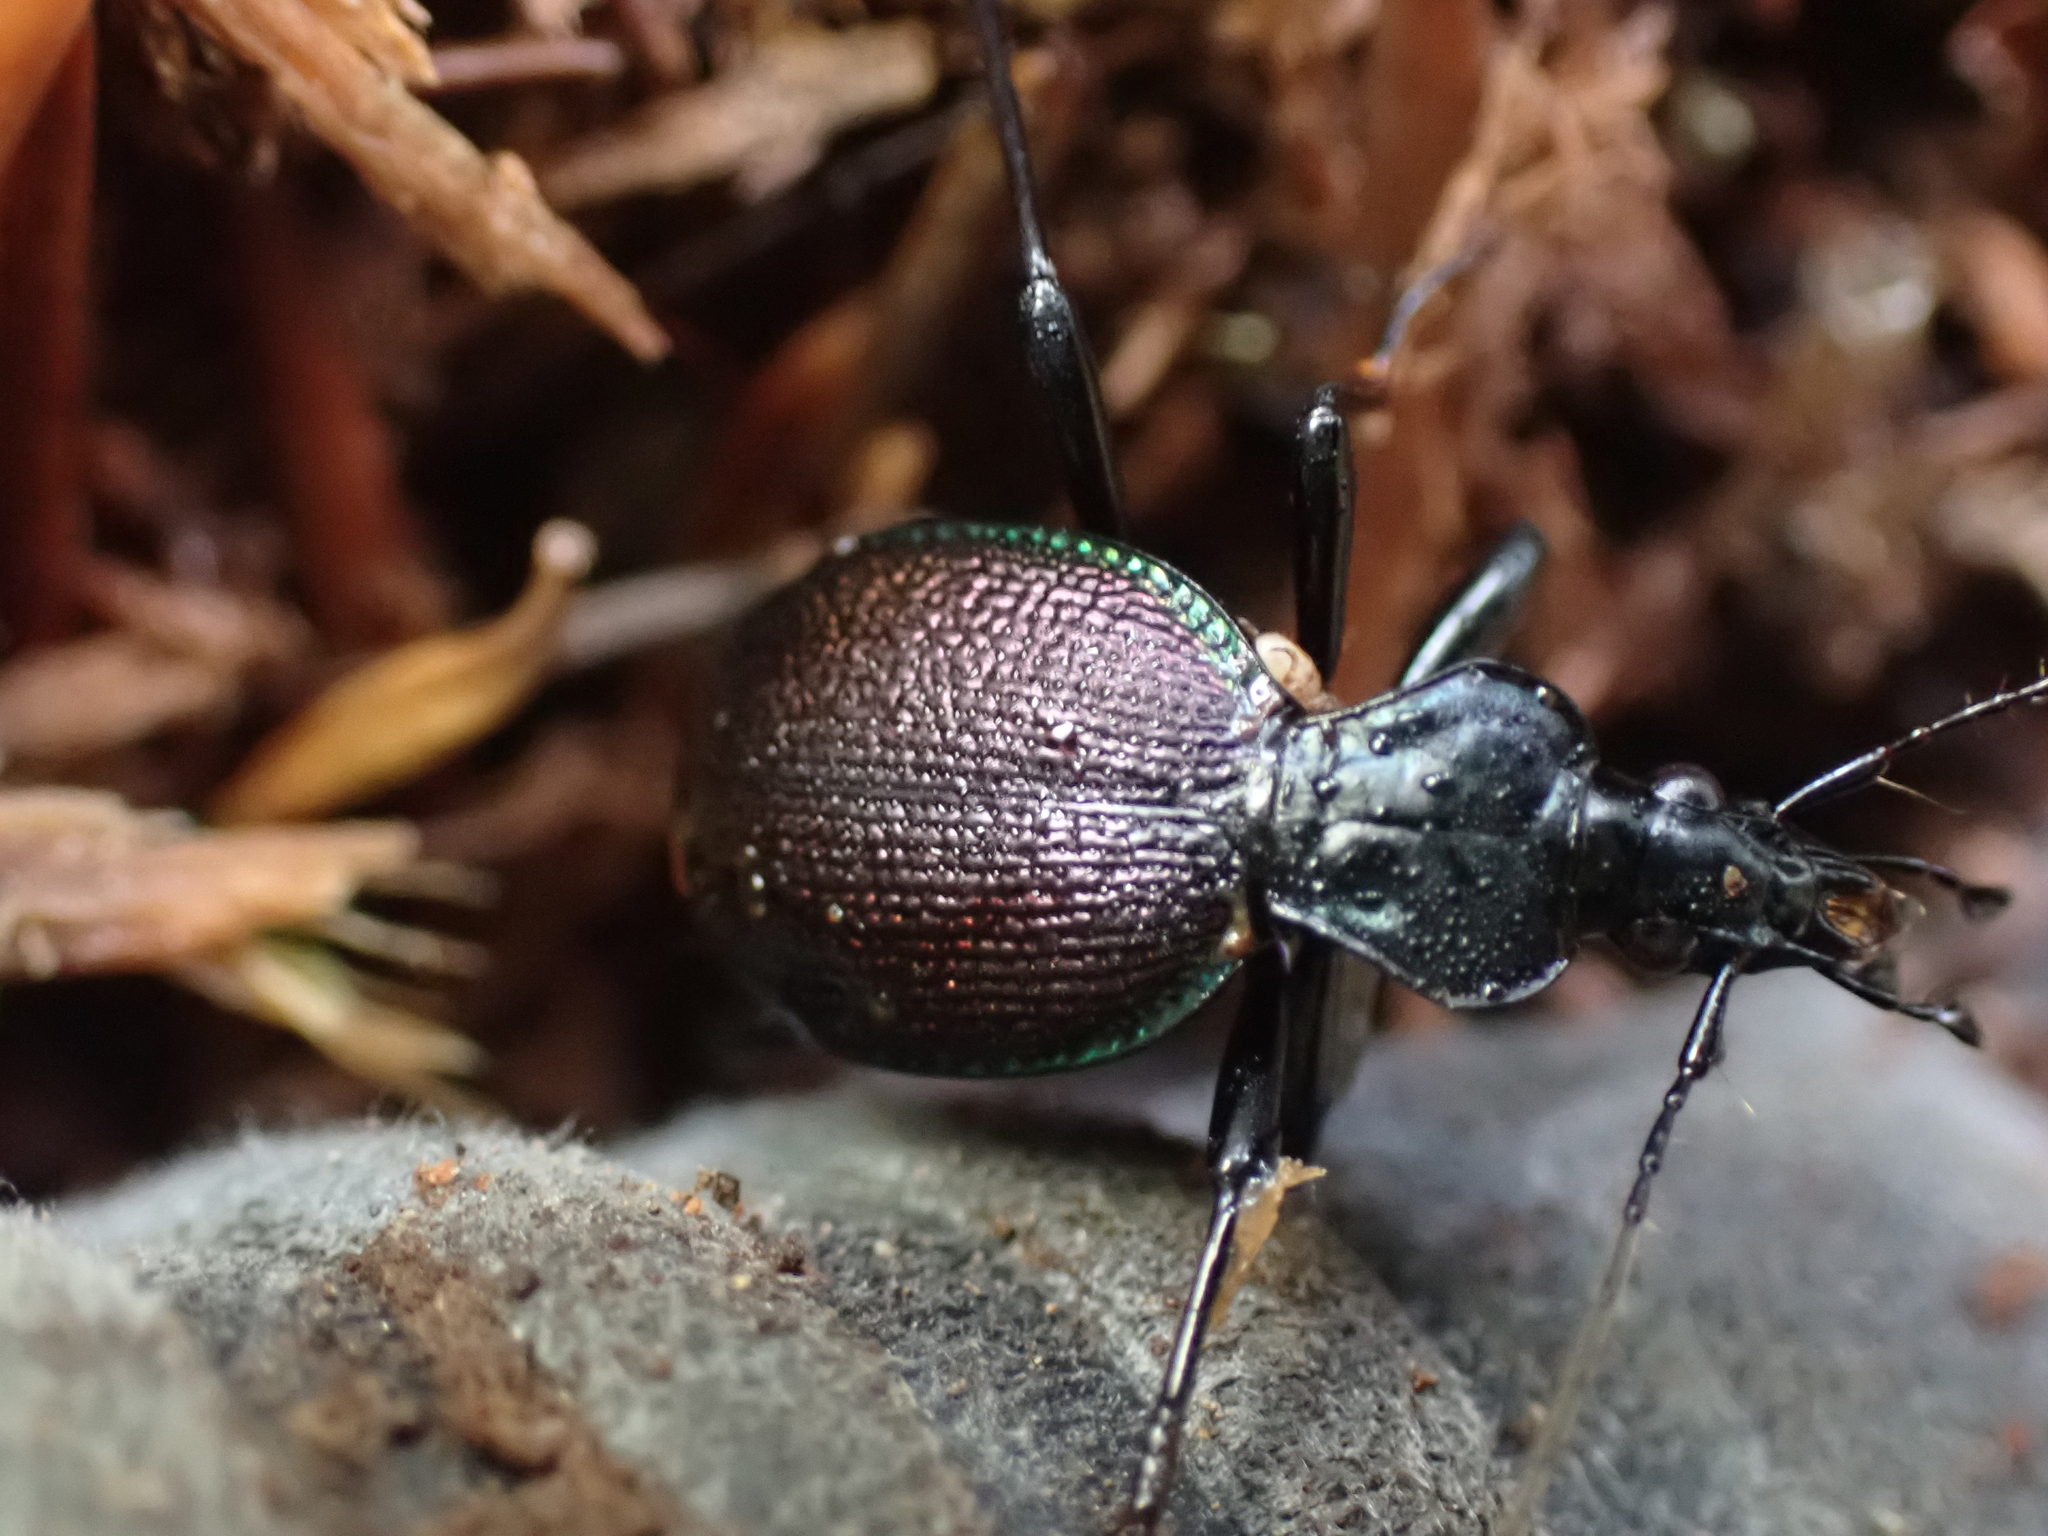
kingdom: Animalia
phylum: Arthropoda
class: Insecta
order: Coleoptera
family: Carabidae
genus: Scaphinotus
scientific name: Scaphinotus marginatus
